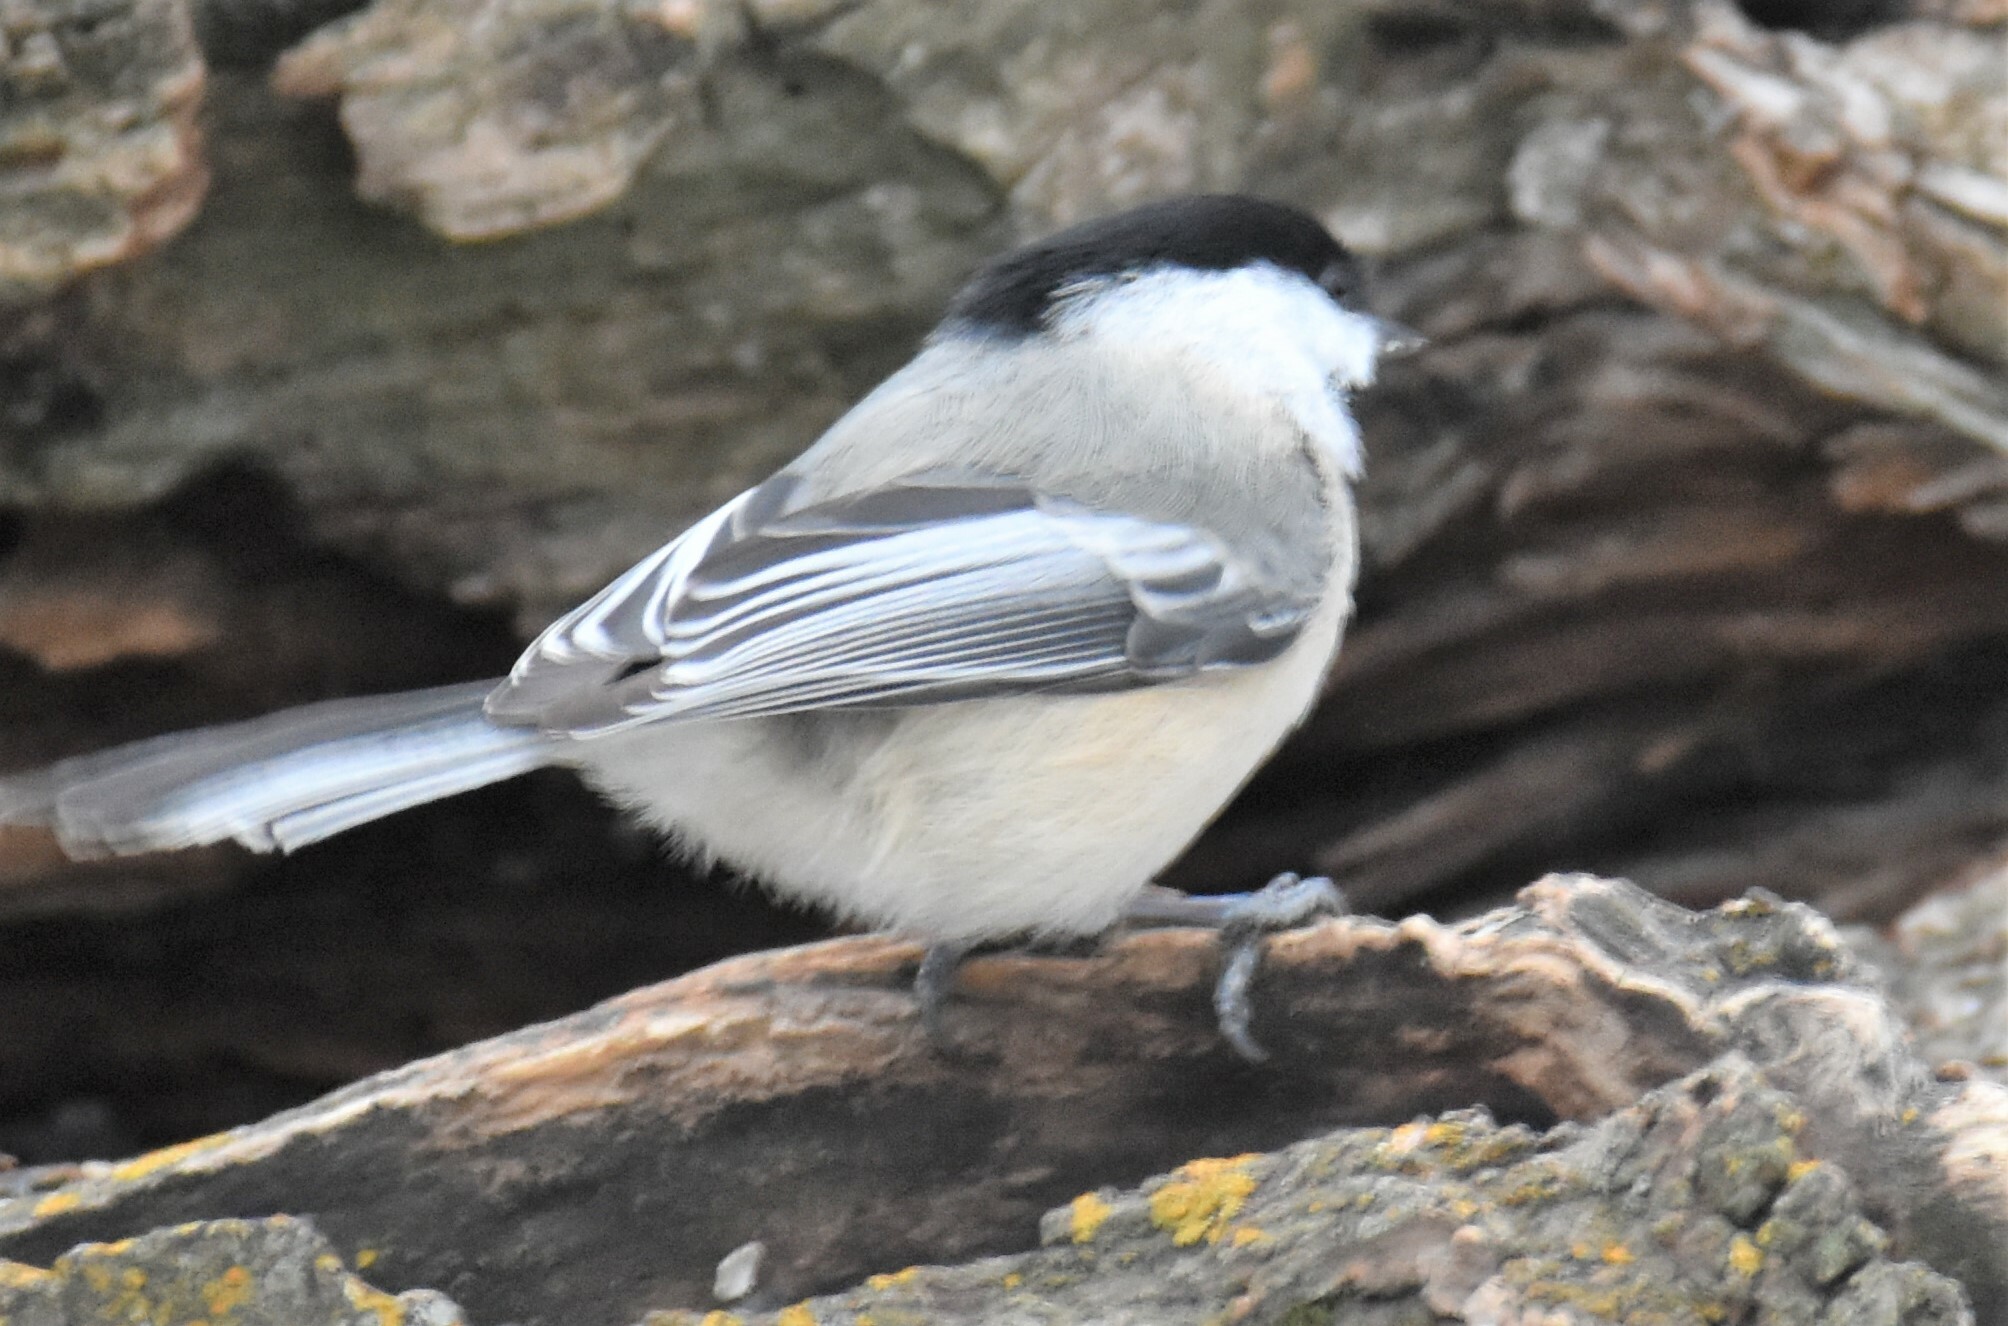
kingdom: Animalia
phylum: Chordata
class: Aves
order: Passeriformes
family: Paridae
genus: Poecile
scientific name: Poecile atricapillus
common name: Black-capped chickadee
